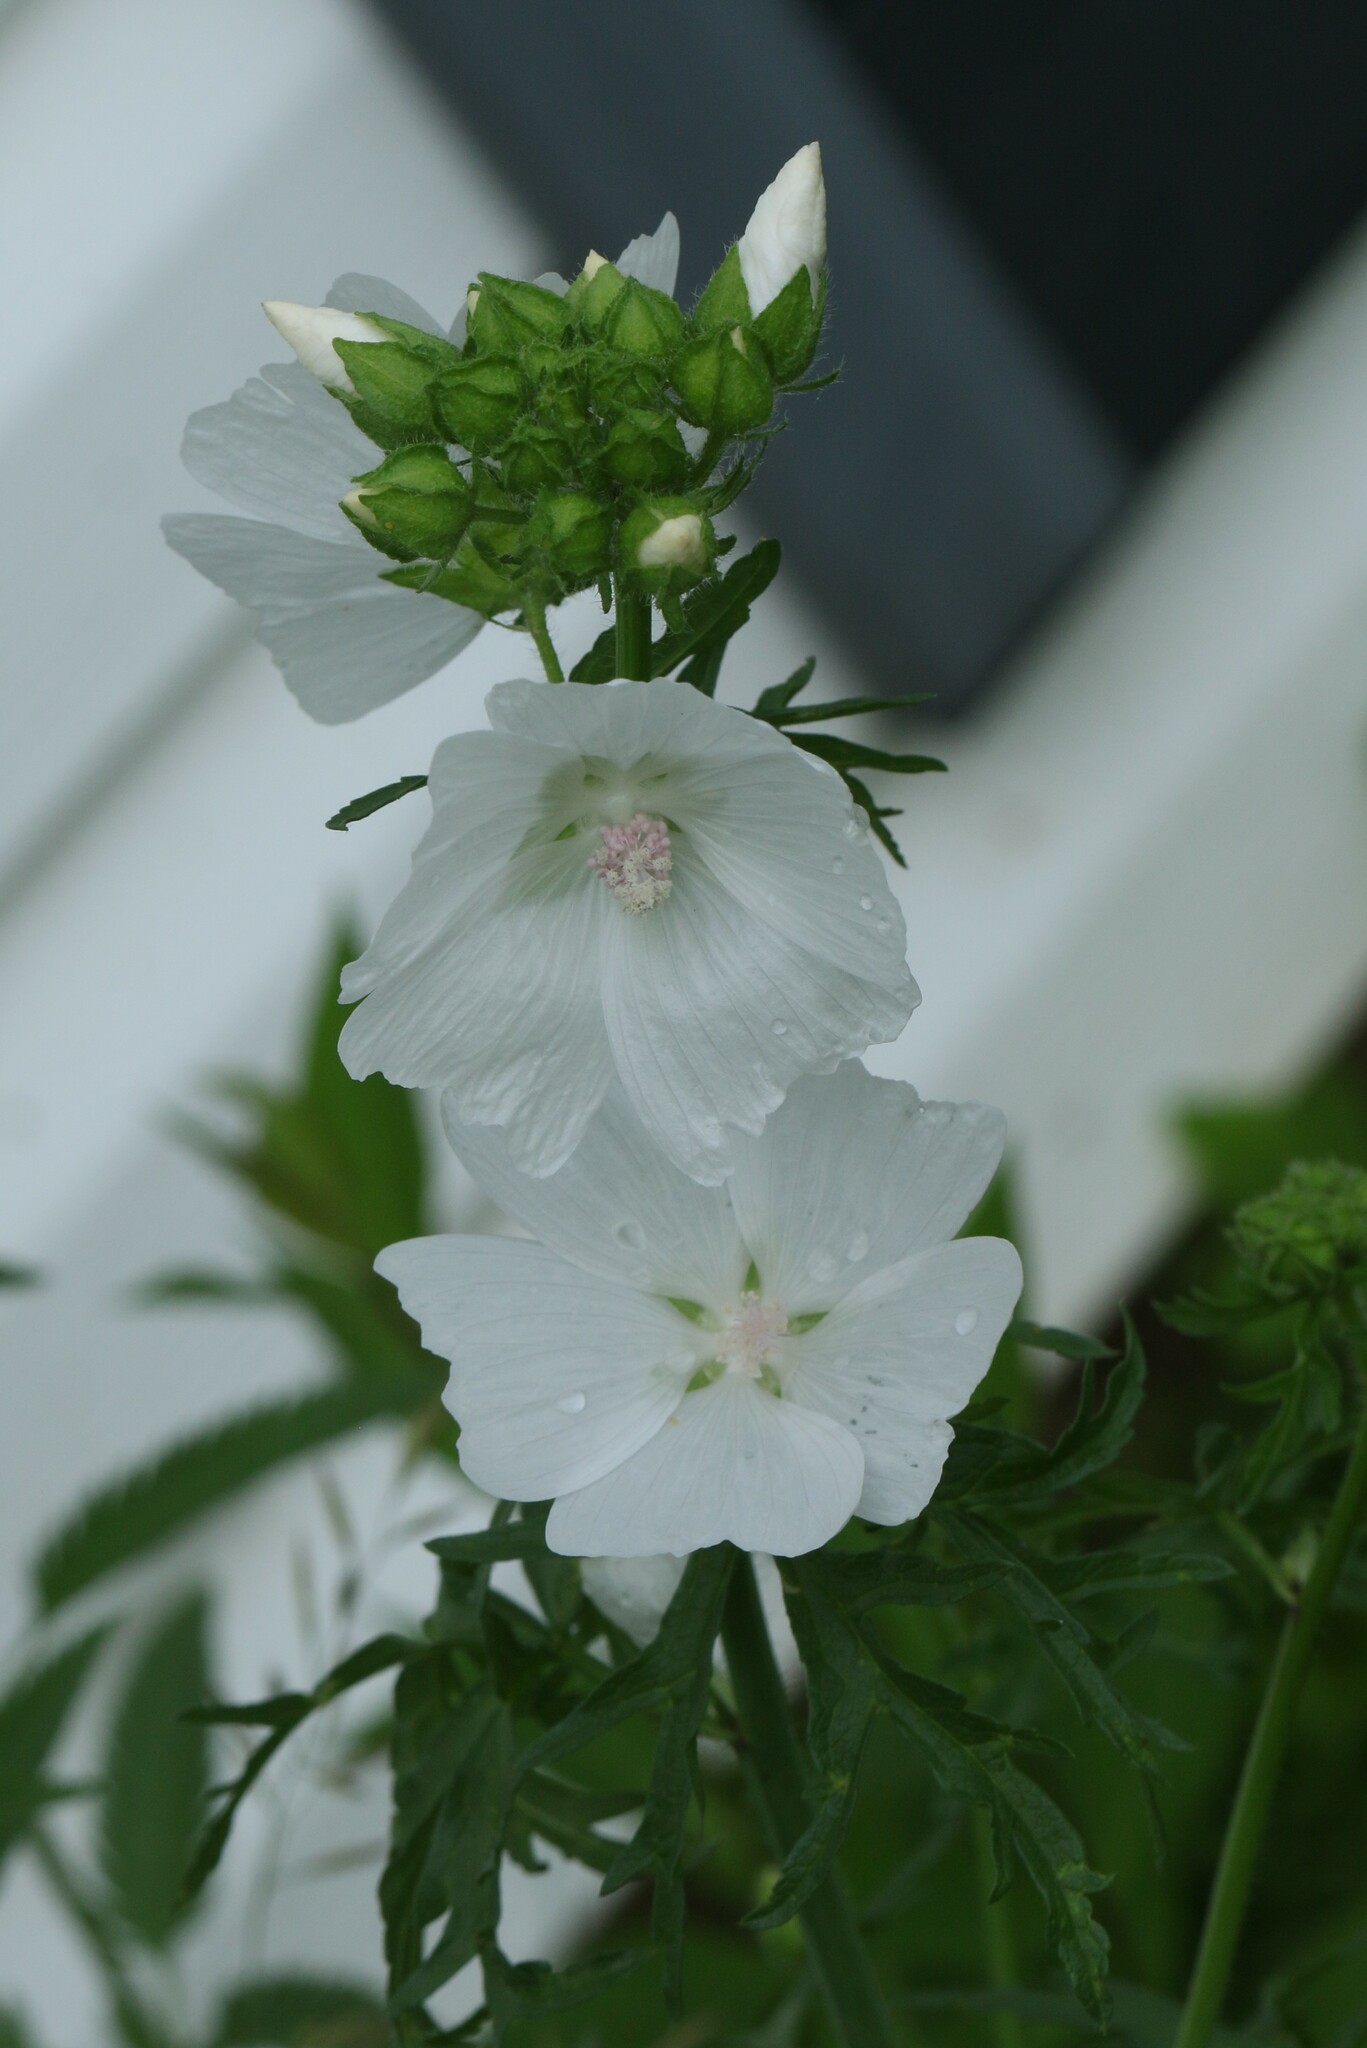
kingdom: Plantae
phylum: Tracheophyta
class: Magnoliopsida
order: Malvales
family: Malvaceae
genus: Malva
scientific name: Malva moschata
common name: Musk mallow
